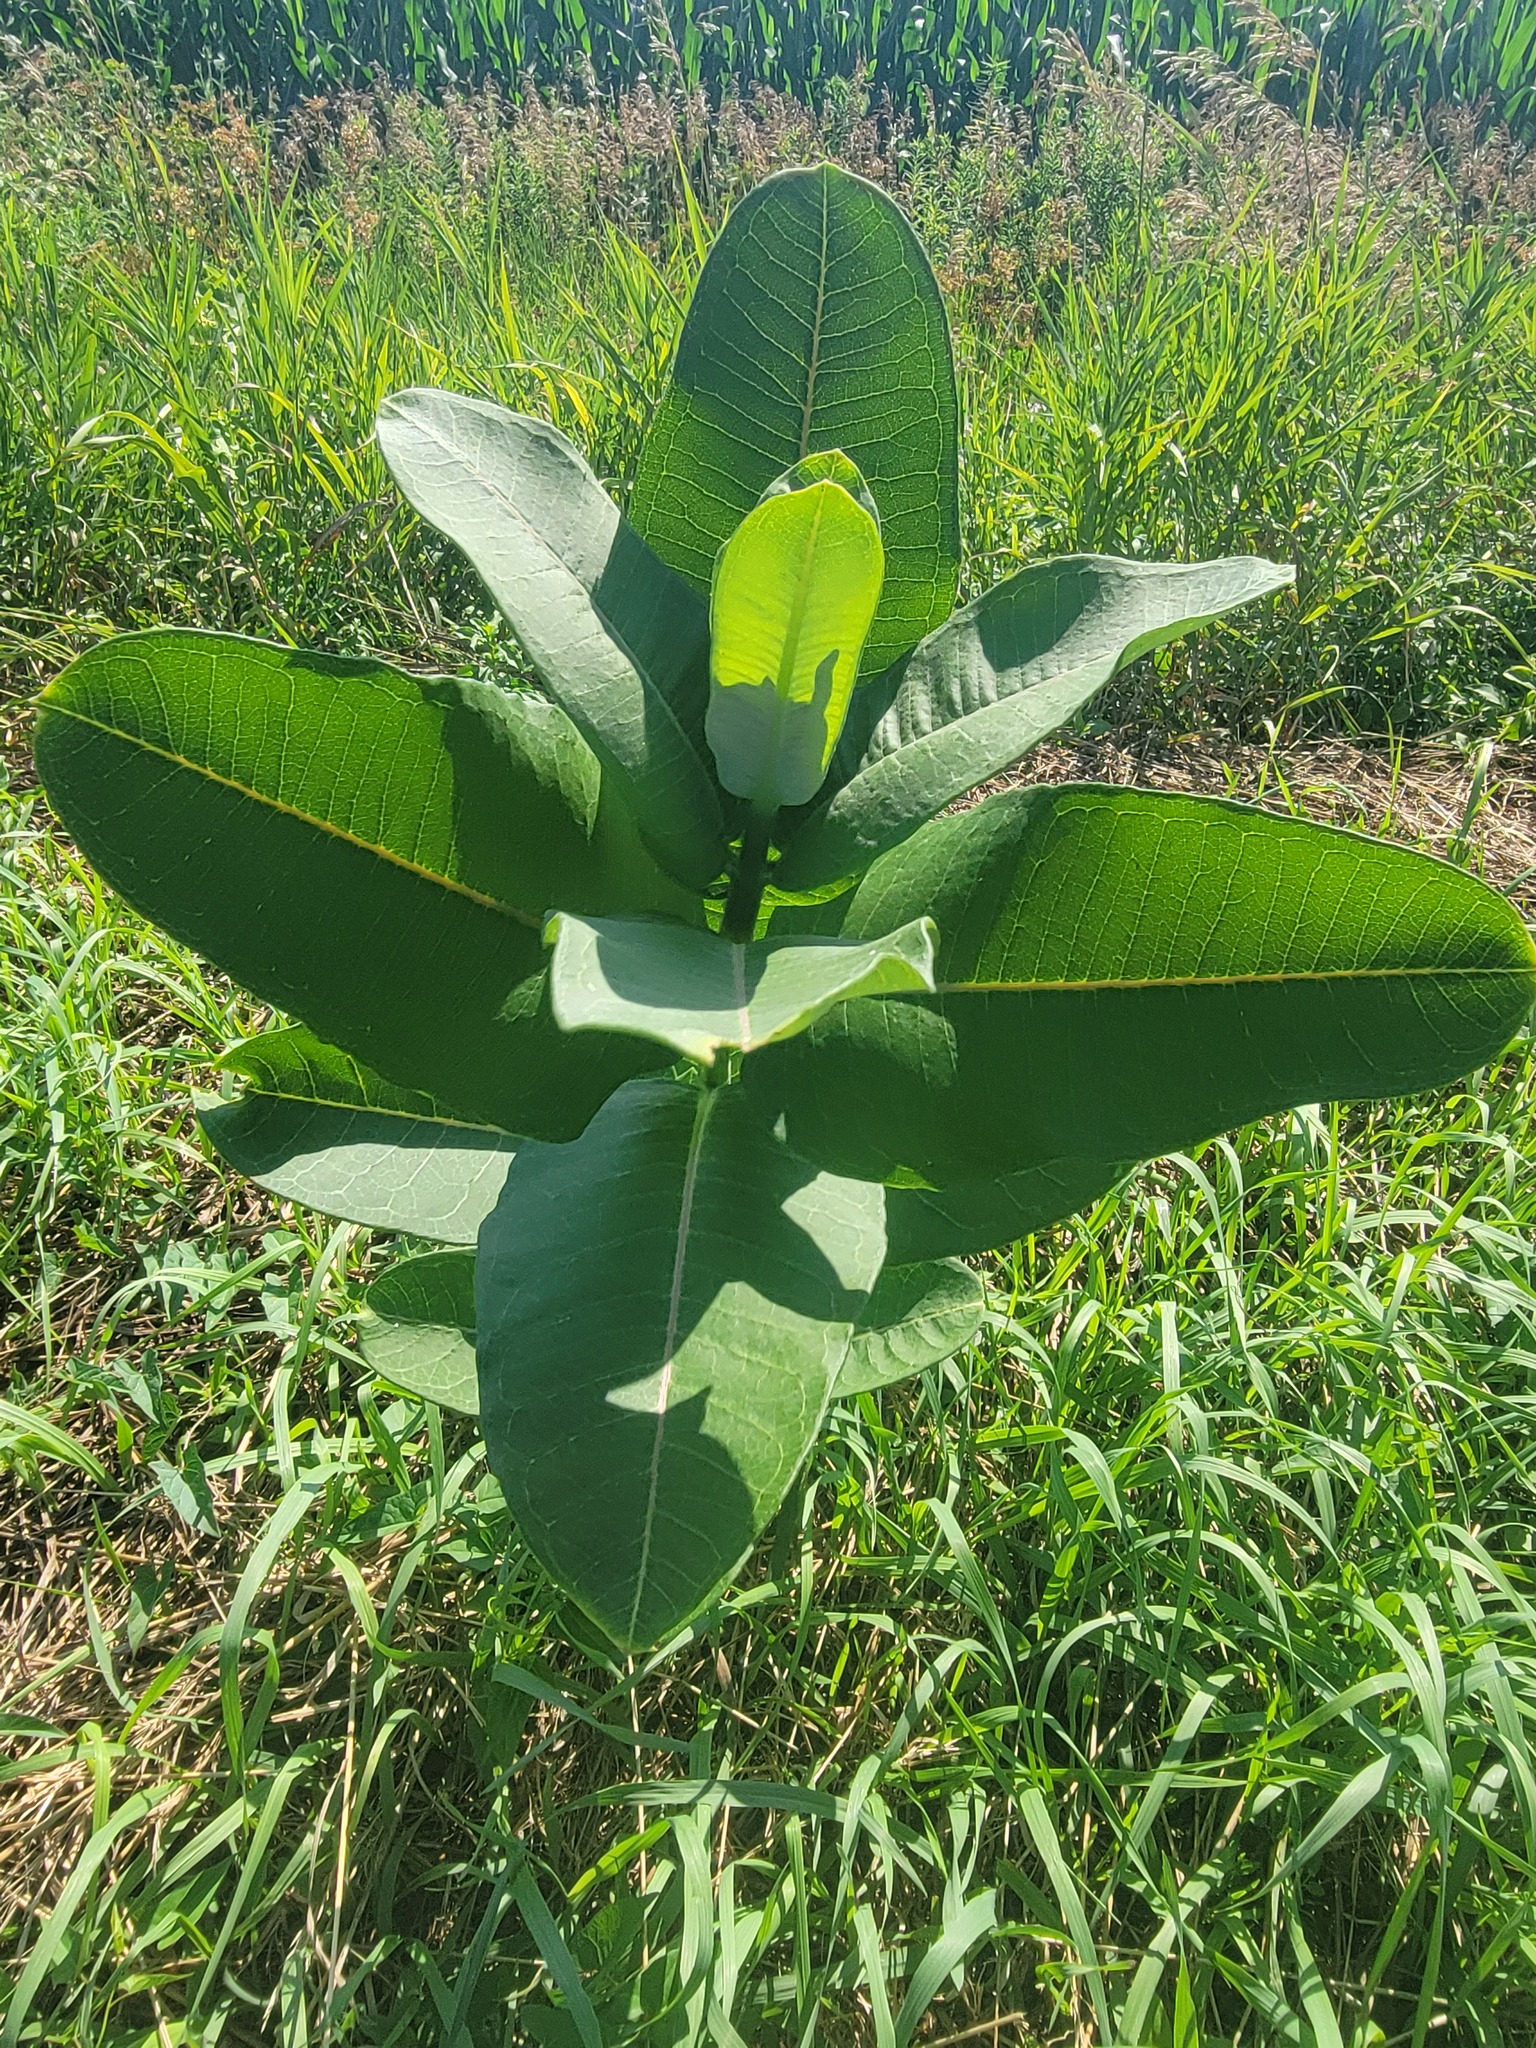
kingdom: Plantae
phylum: Tracheophyta
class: Magnoliopsida
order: Gentianales
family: Apocynaceae
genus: Asclepias
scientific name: Asclepias syriaca
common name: Common milkweed
